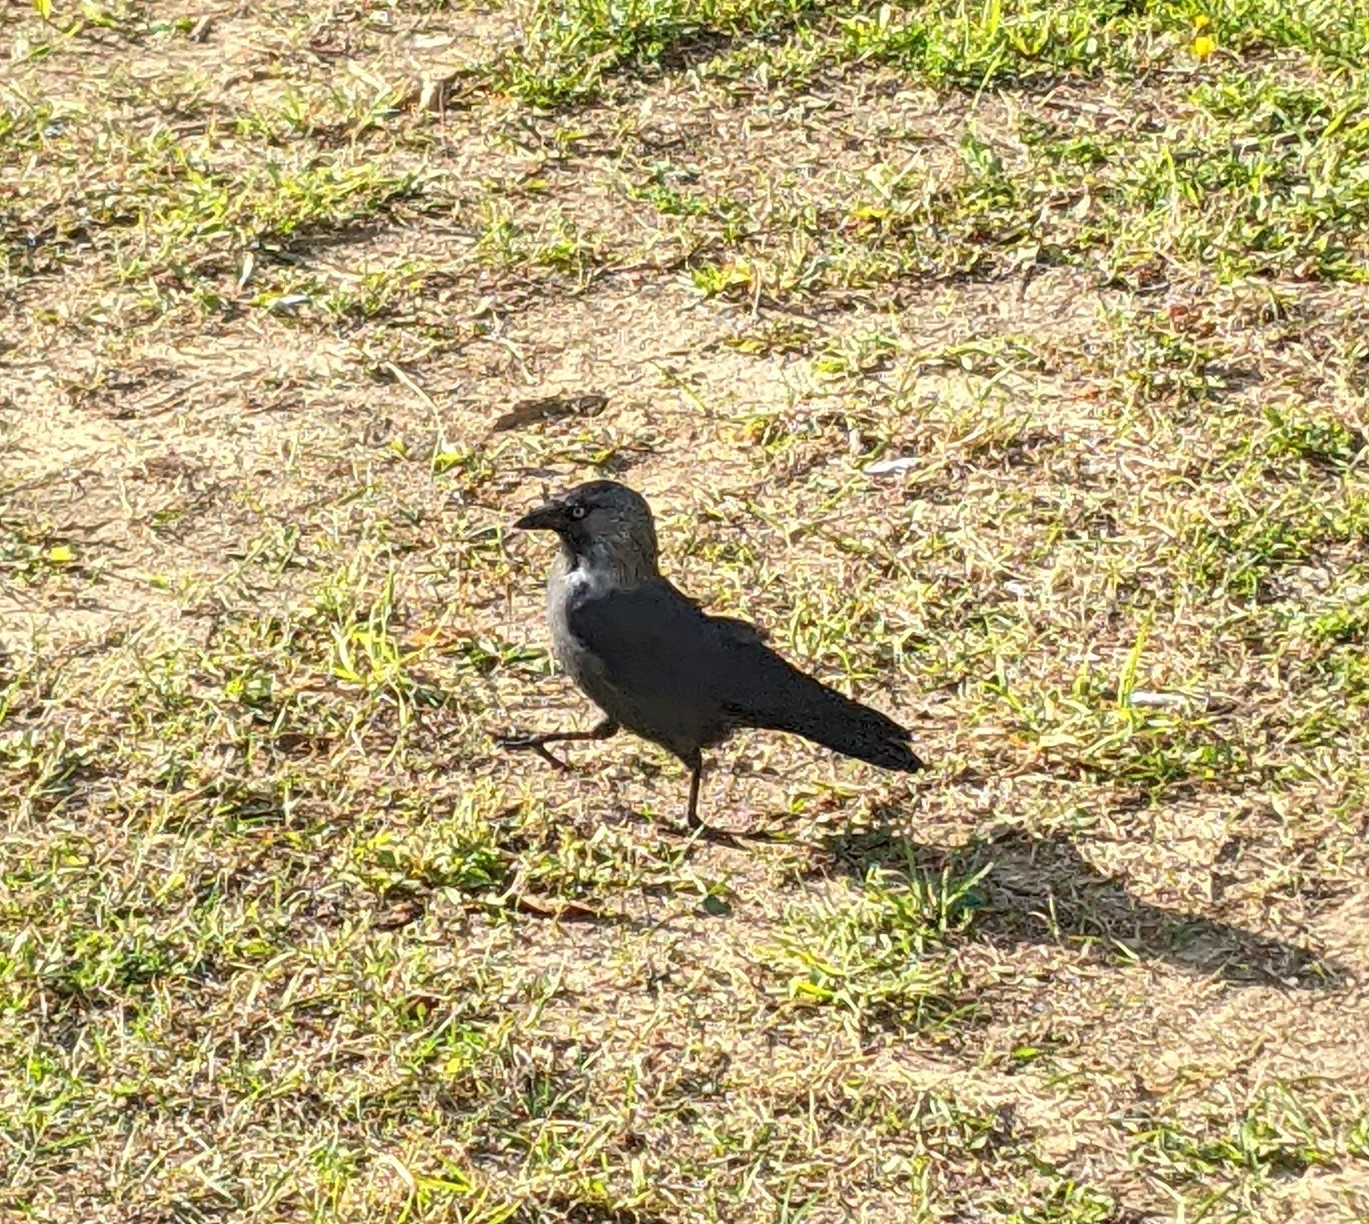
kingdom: Animalia
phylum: Chordata
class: Aves
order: Passeriformes
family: Corvidae
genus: Coloeus
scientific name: Coloeus monedula
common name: Western jackdaw
